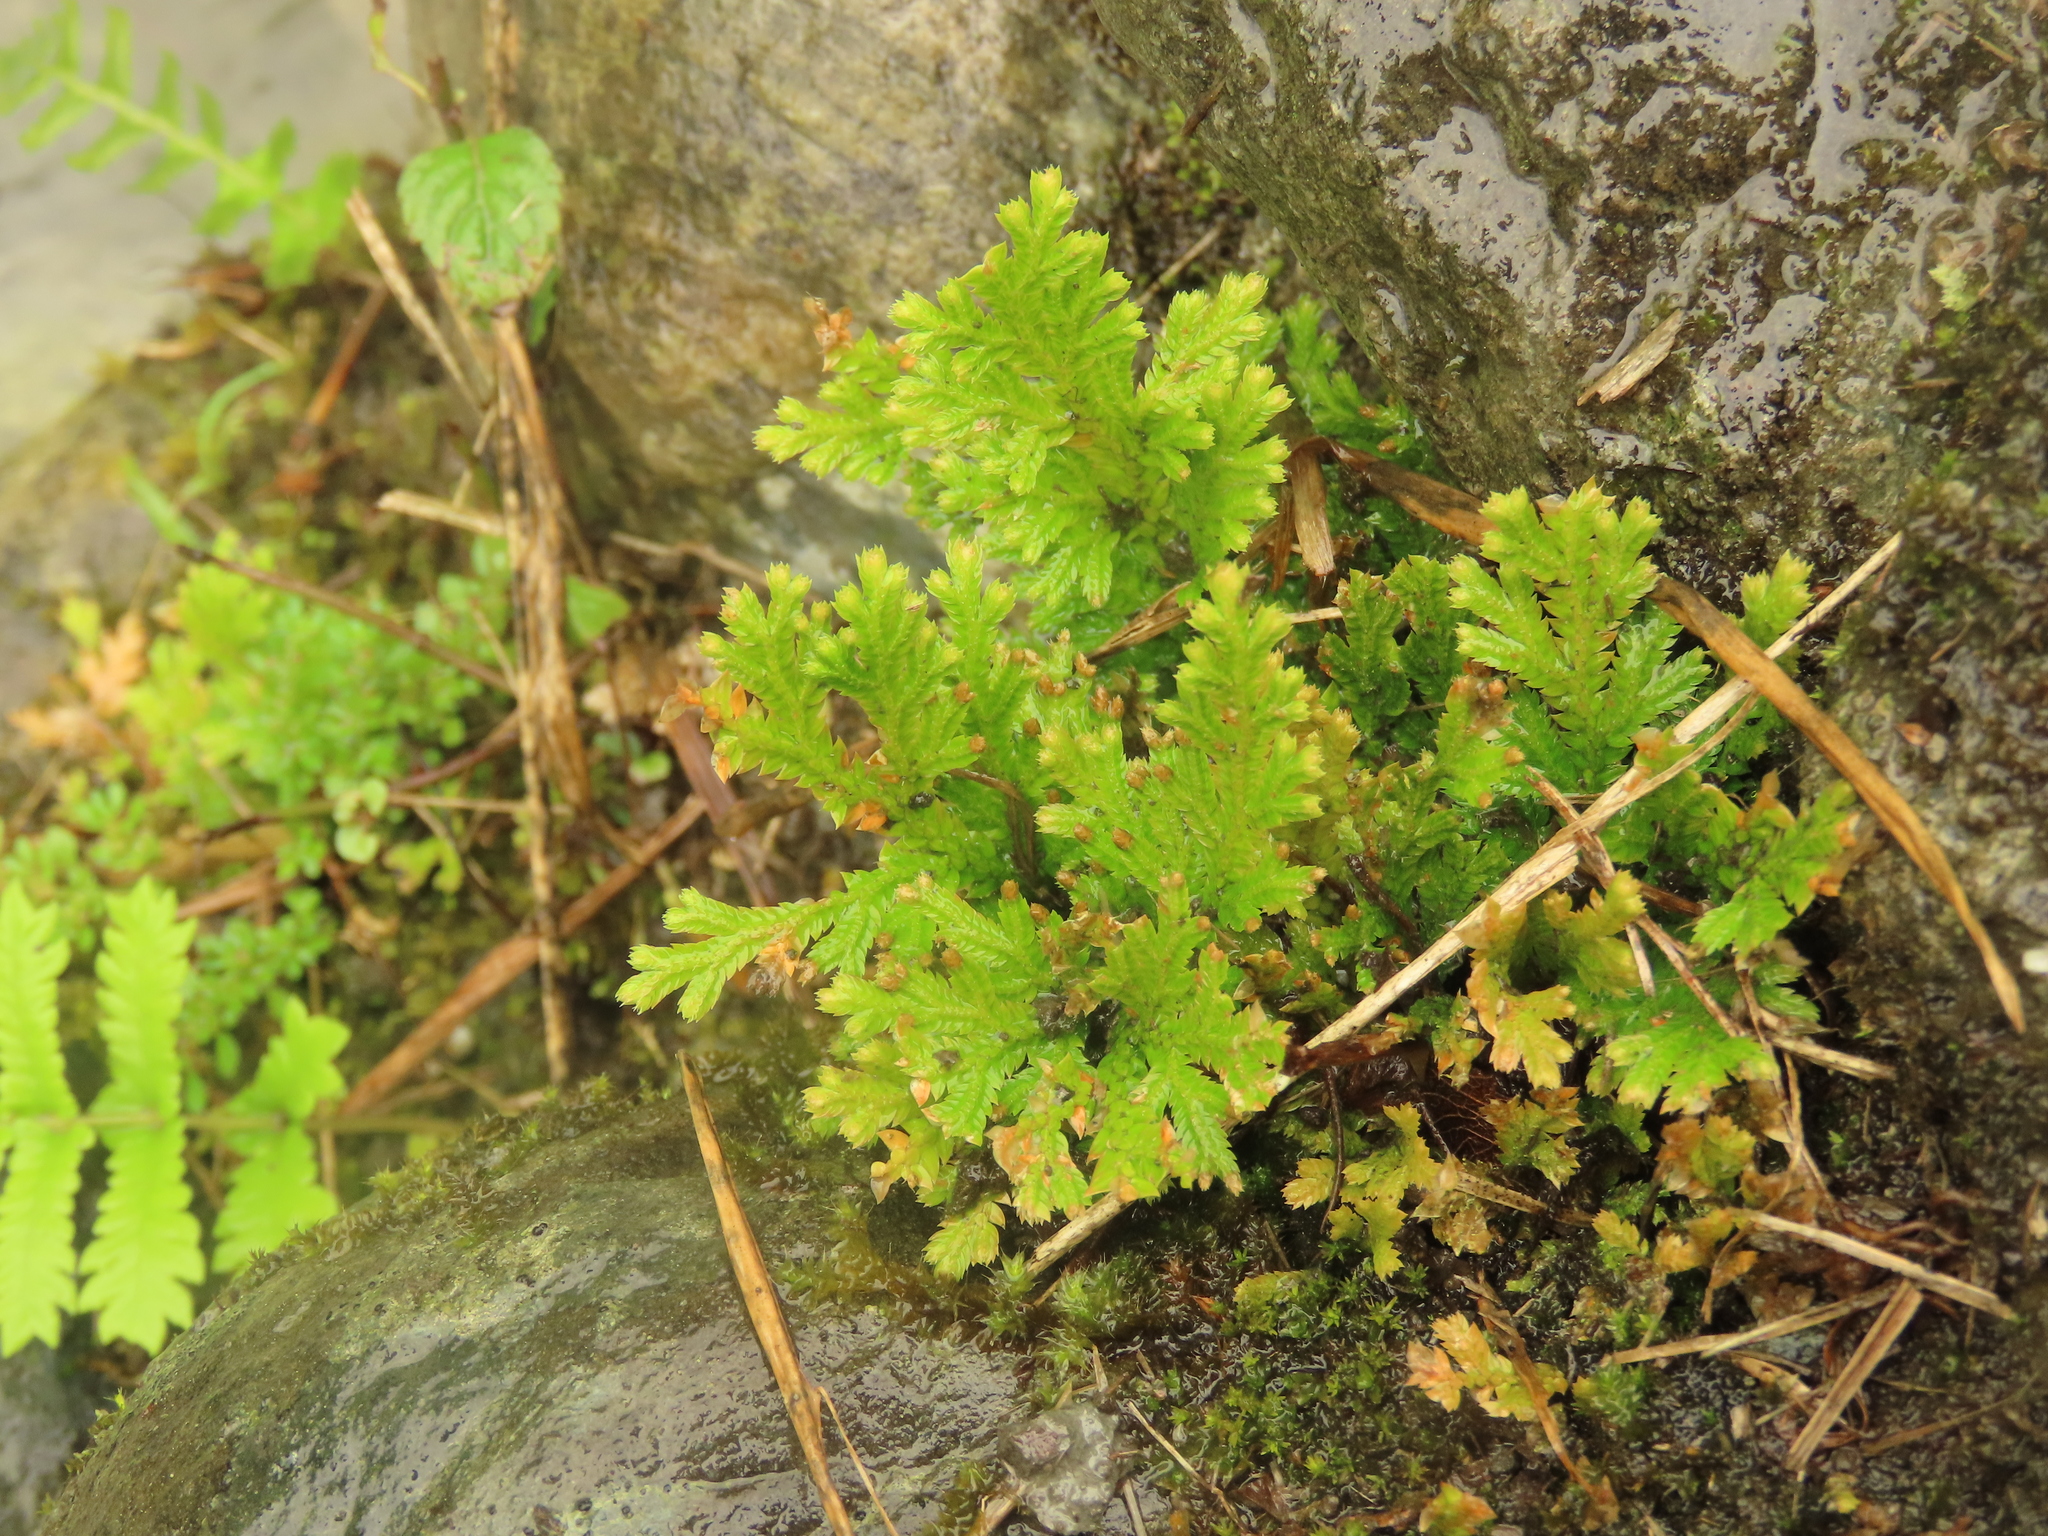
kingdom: Plantae
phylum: Tracheophyta
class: Lycopodiopsida
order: Selaginellales
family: Selaginellaceae
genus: Selaginella
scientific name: Selaginella moellendorffii
